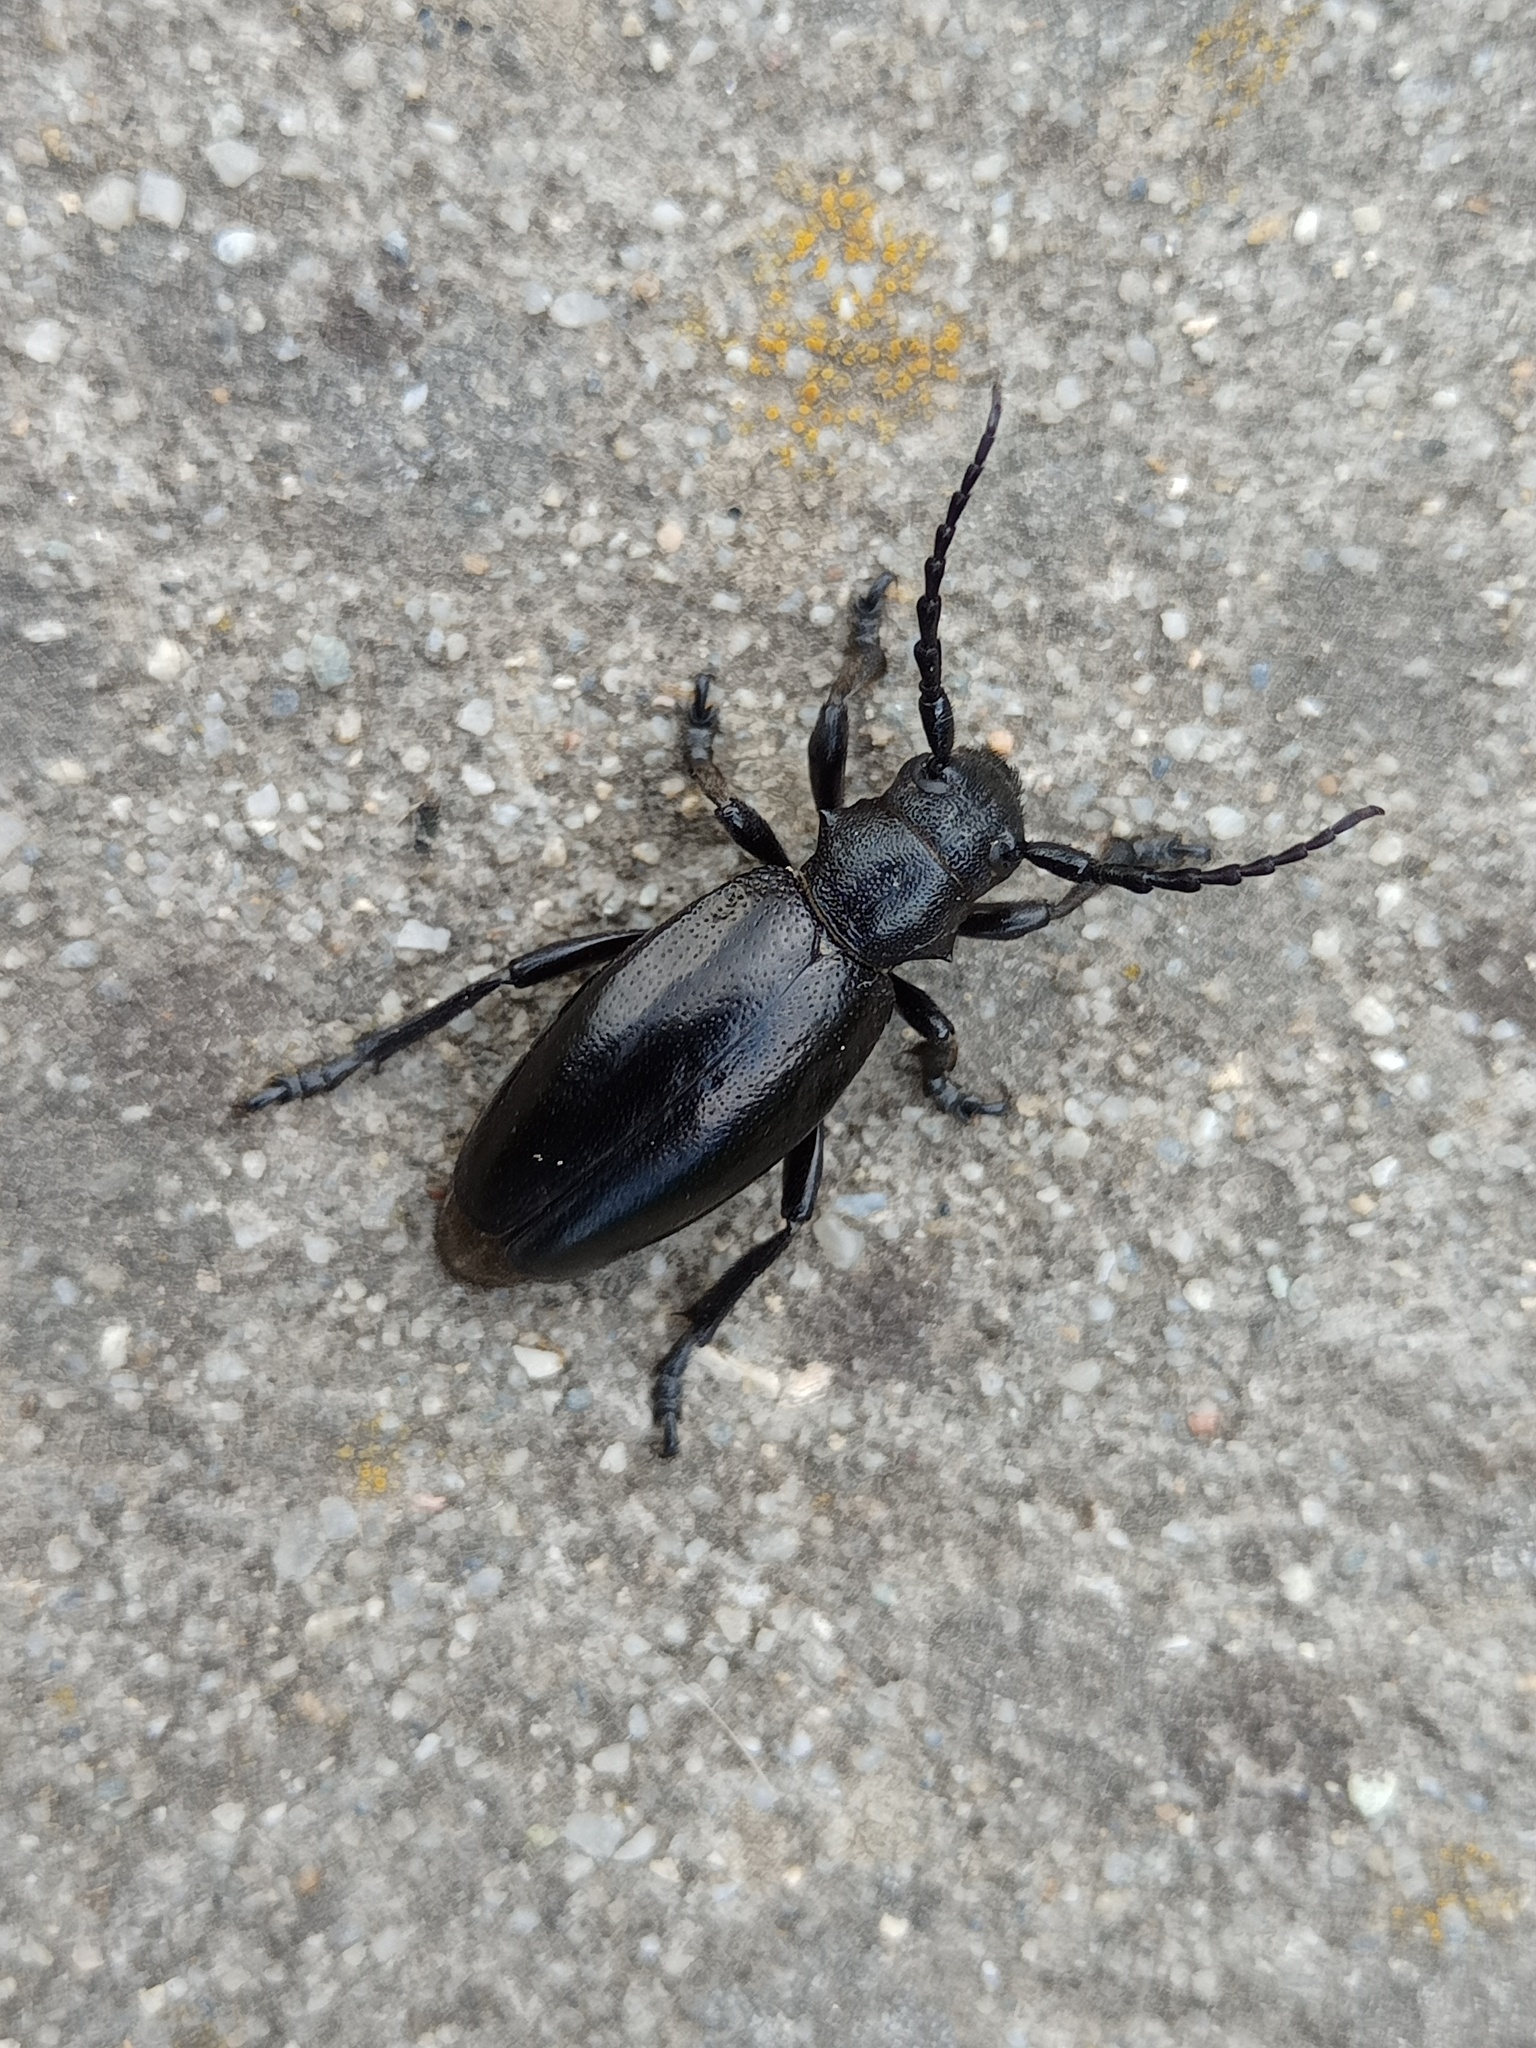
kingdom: Animalia
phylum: Arthropoda
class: Insecta
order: Coleoptera
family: Cerambycidae
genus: Dorcadion
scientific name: Dorcadion aethiops
